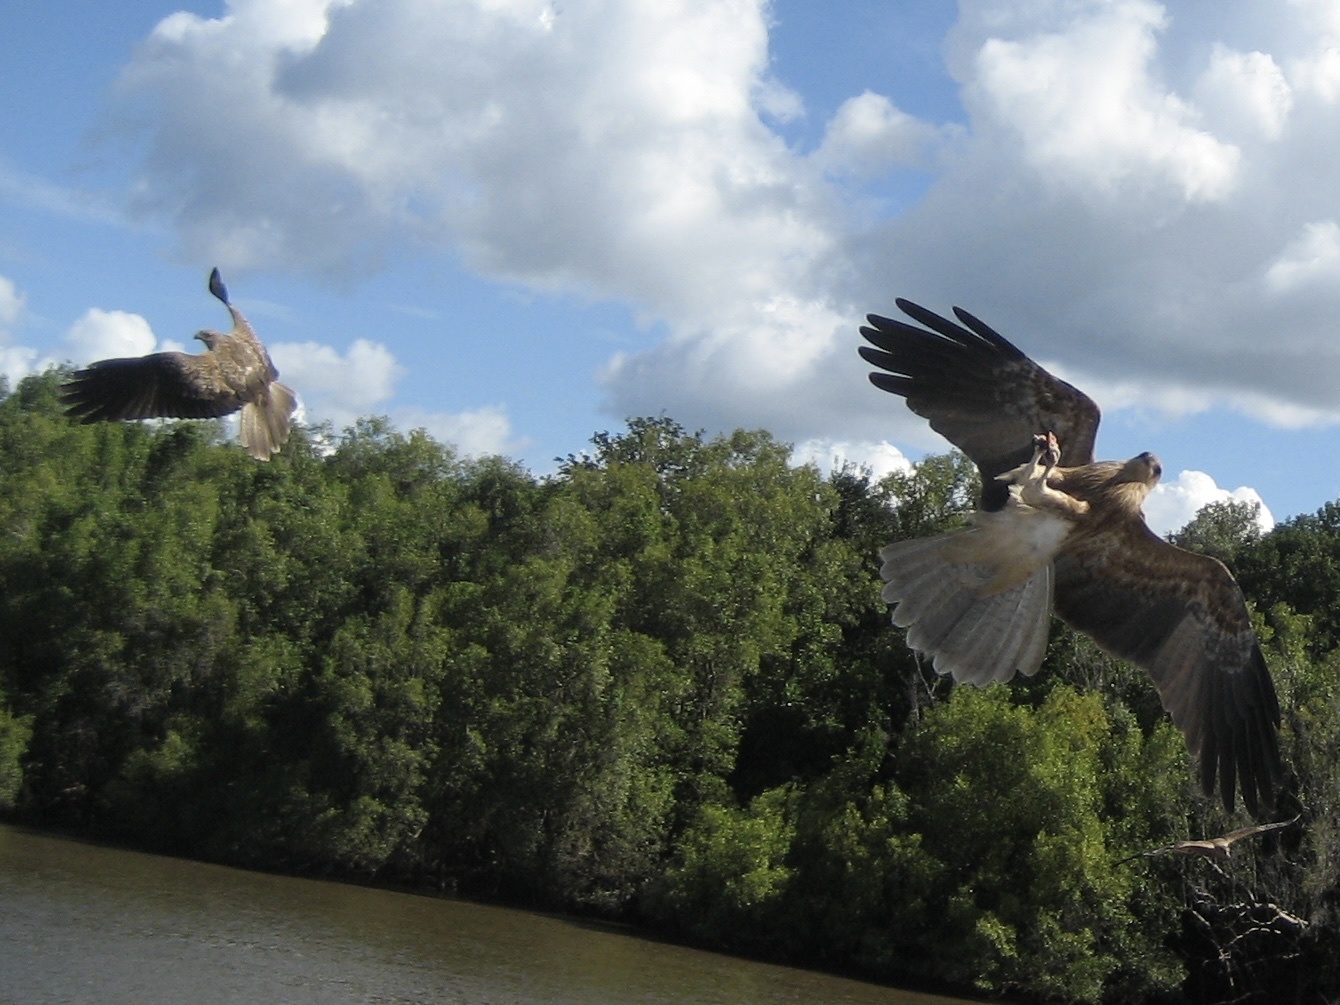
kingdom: Animalia
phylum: Chordata
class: Aves
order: Accipitriformes
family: Accipitridae
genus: Haliastur
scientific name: Haliastur sphenurus
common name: Whistling kite
